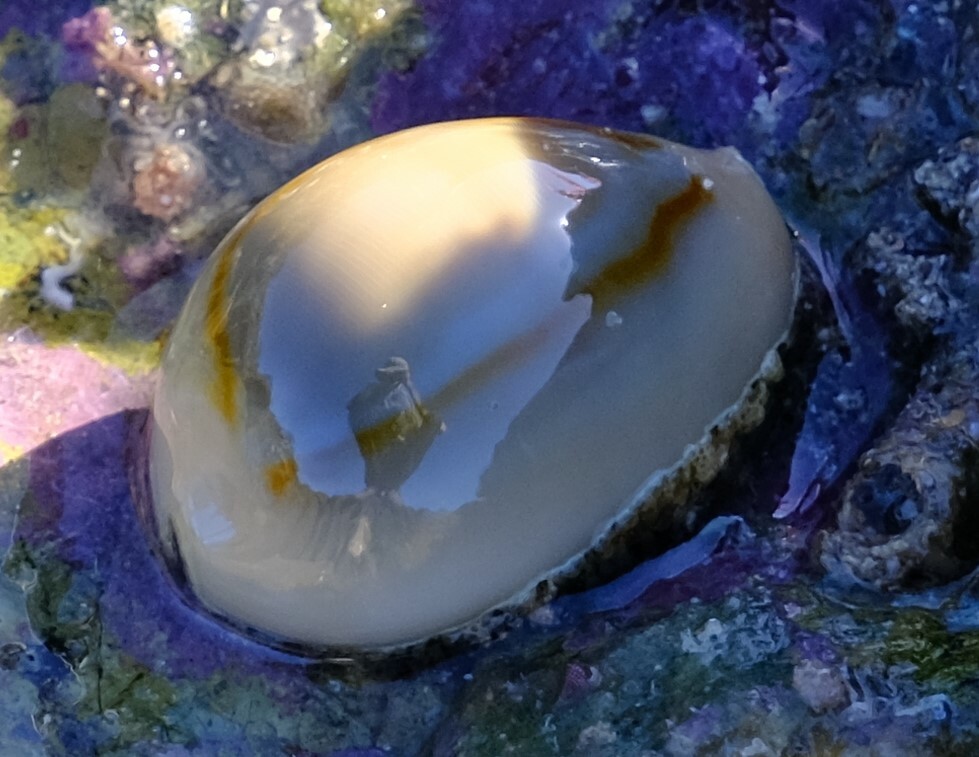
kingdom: Animalia
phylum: Mollusca
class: Gastropoda
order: Littorinimorpha
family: Cypraeidae
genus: Monetaria
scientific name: Monetaria annulus
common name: Ring cowrie
